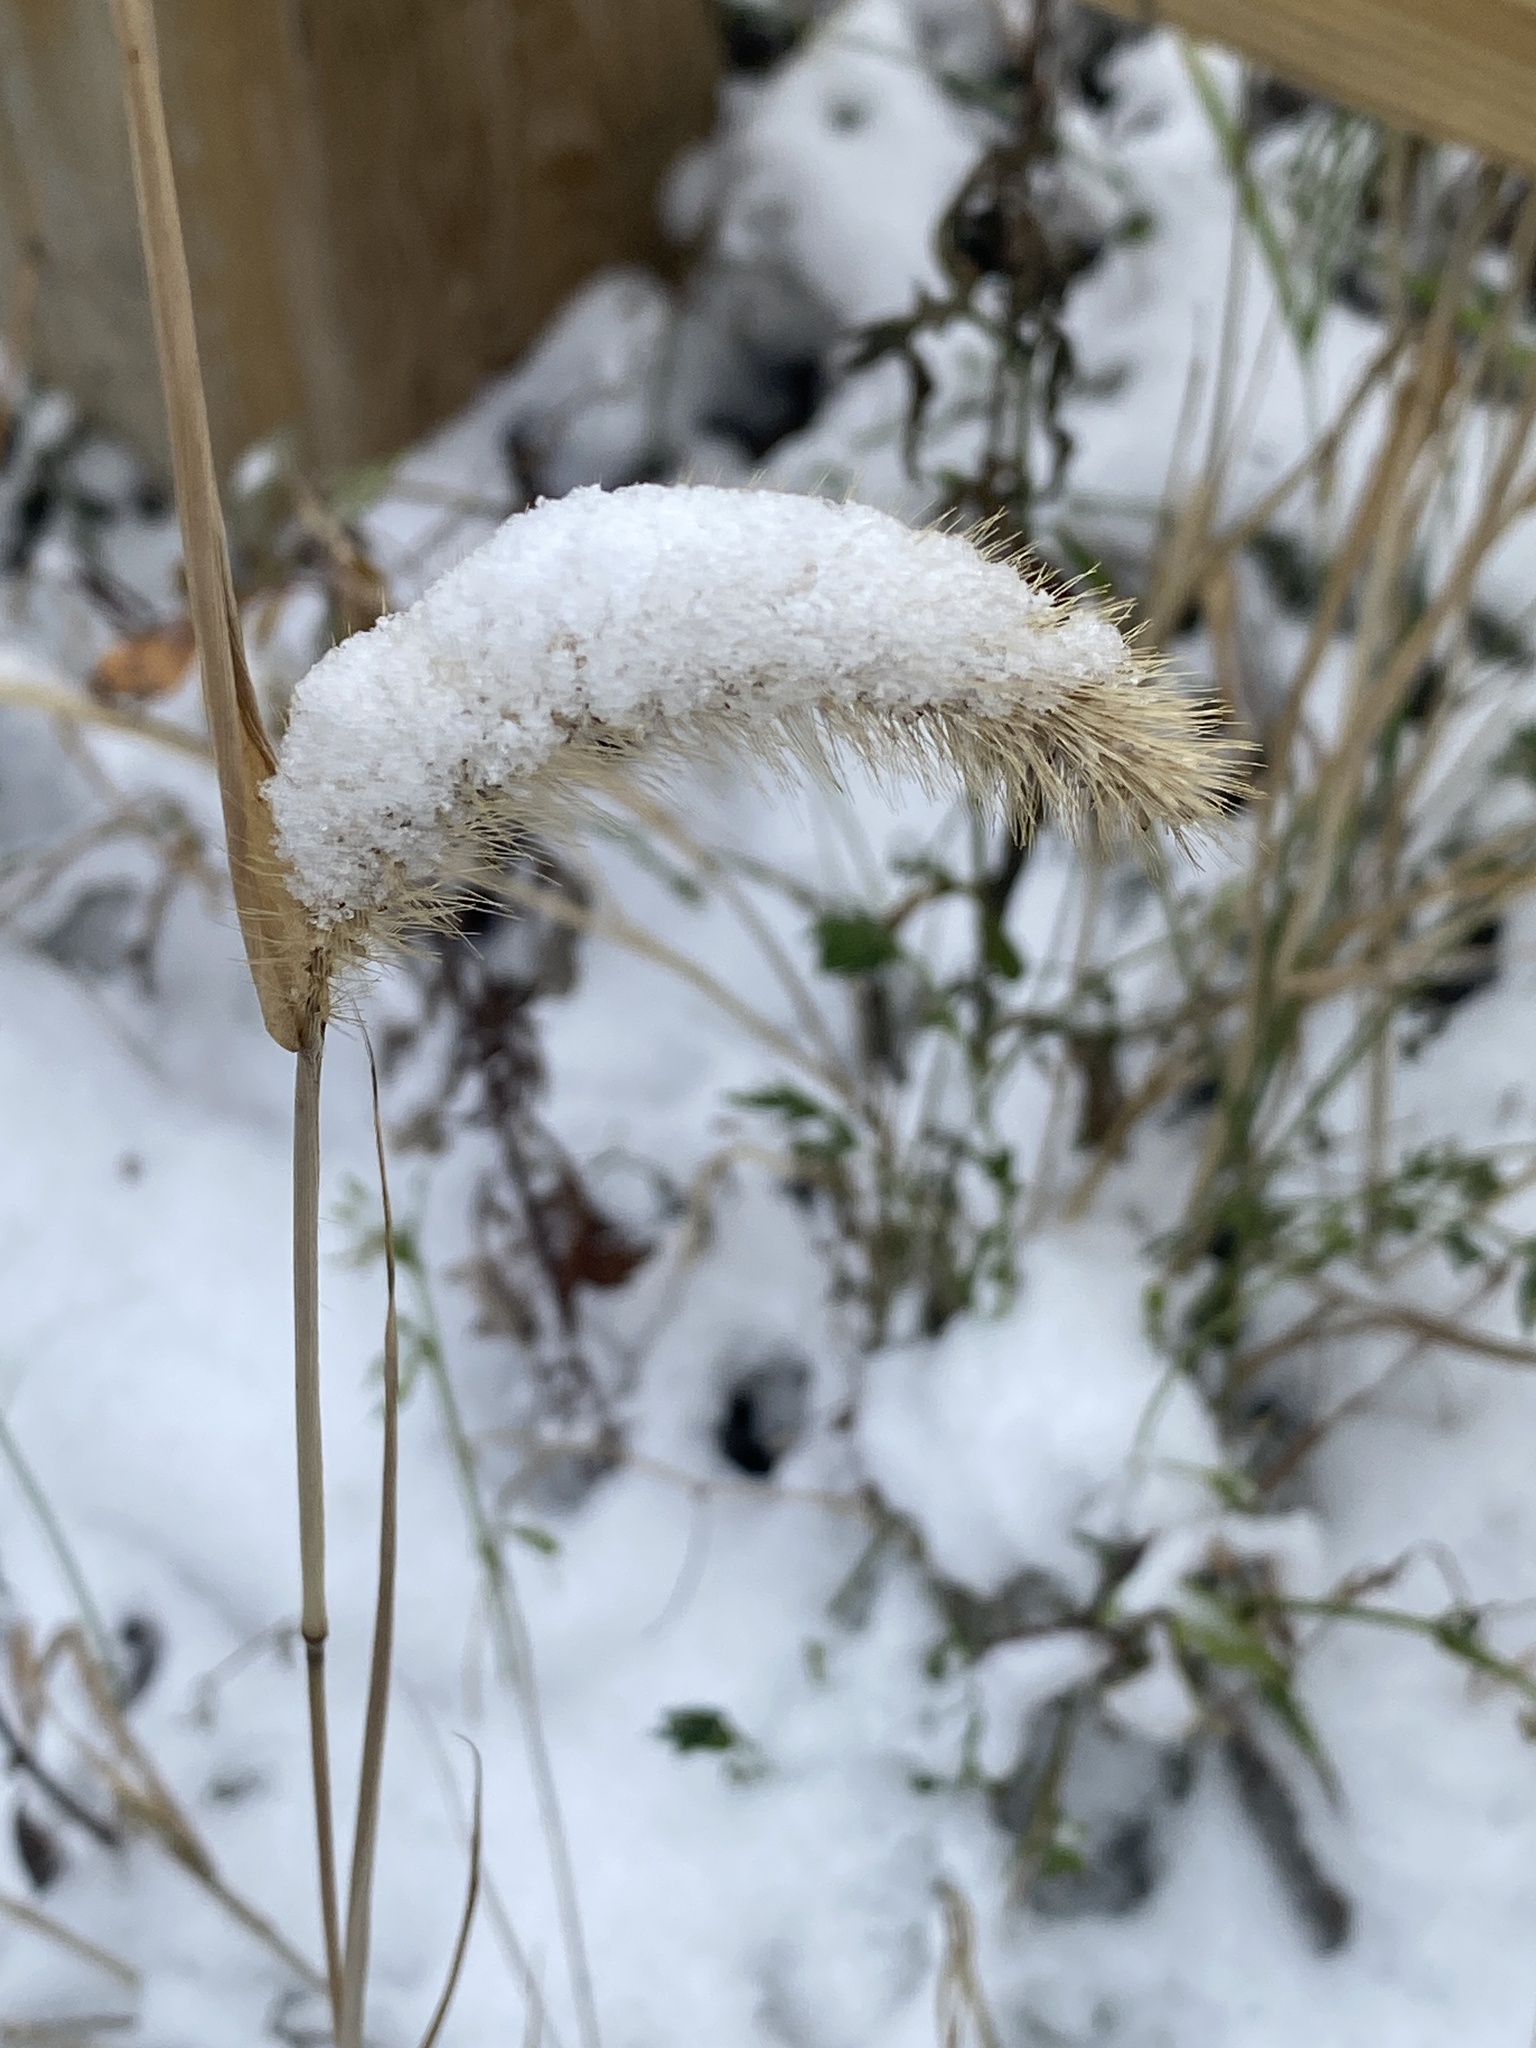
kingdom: Plantae
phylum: Tracheophyta
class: Liliopsida
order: Poales
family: Poaceae
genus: Setaria
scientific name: Setaria faberi
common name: Nodding bristle-grass
